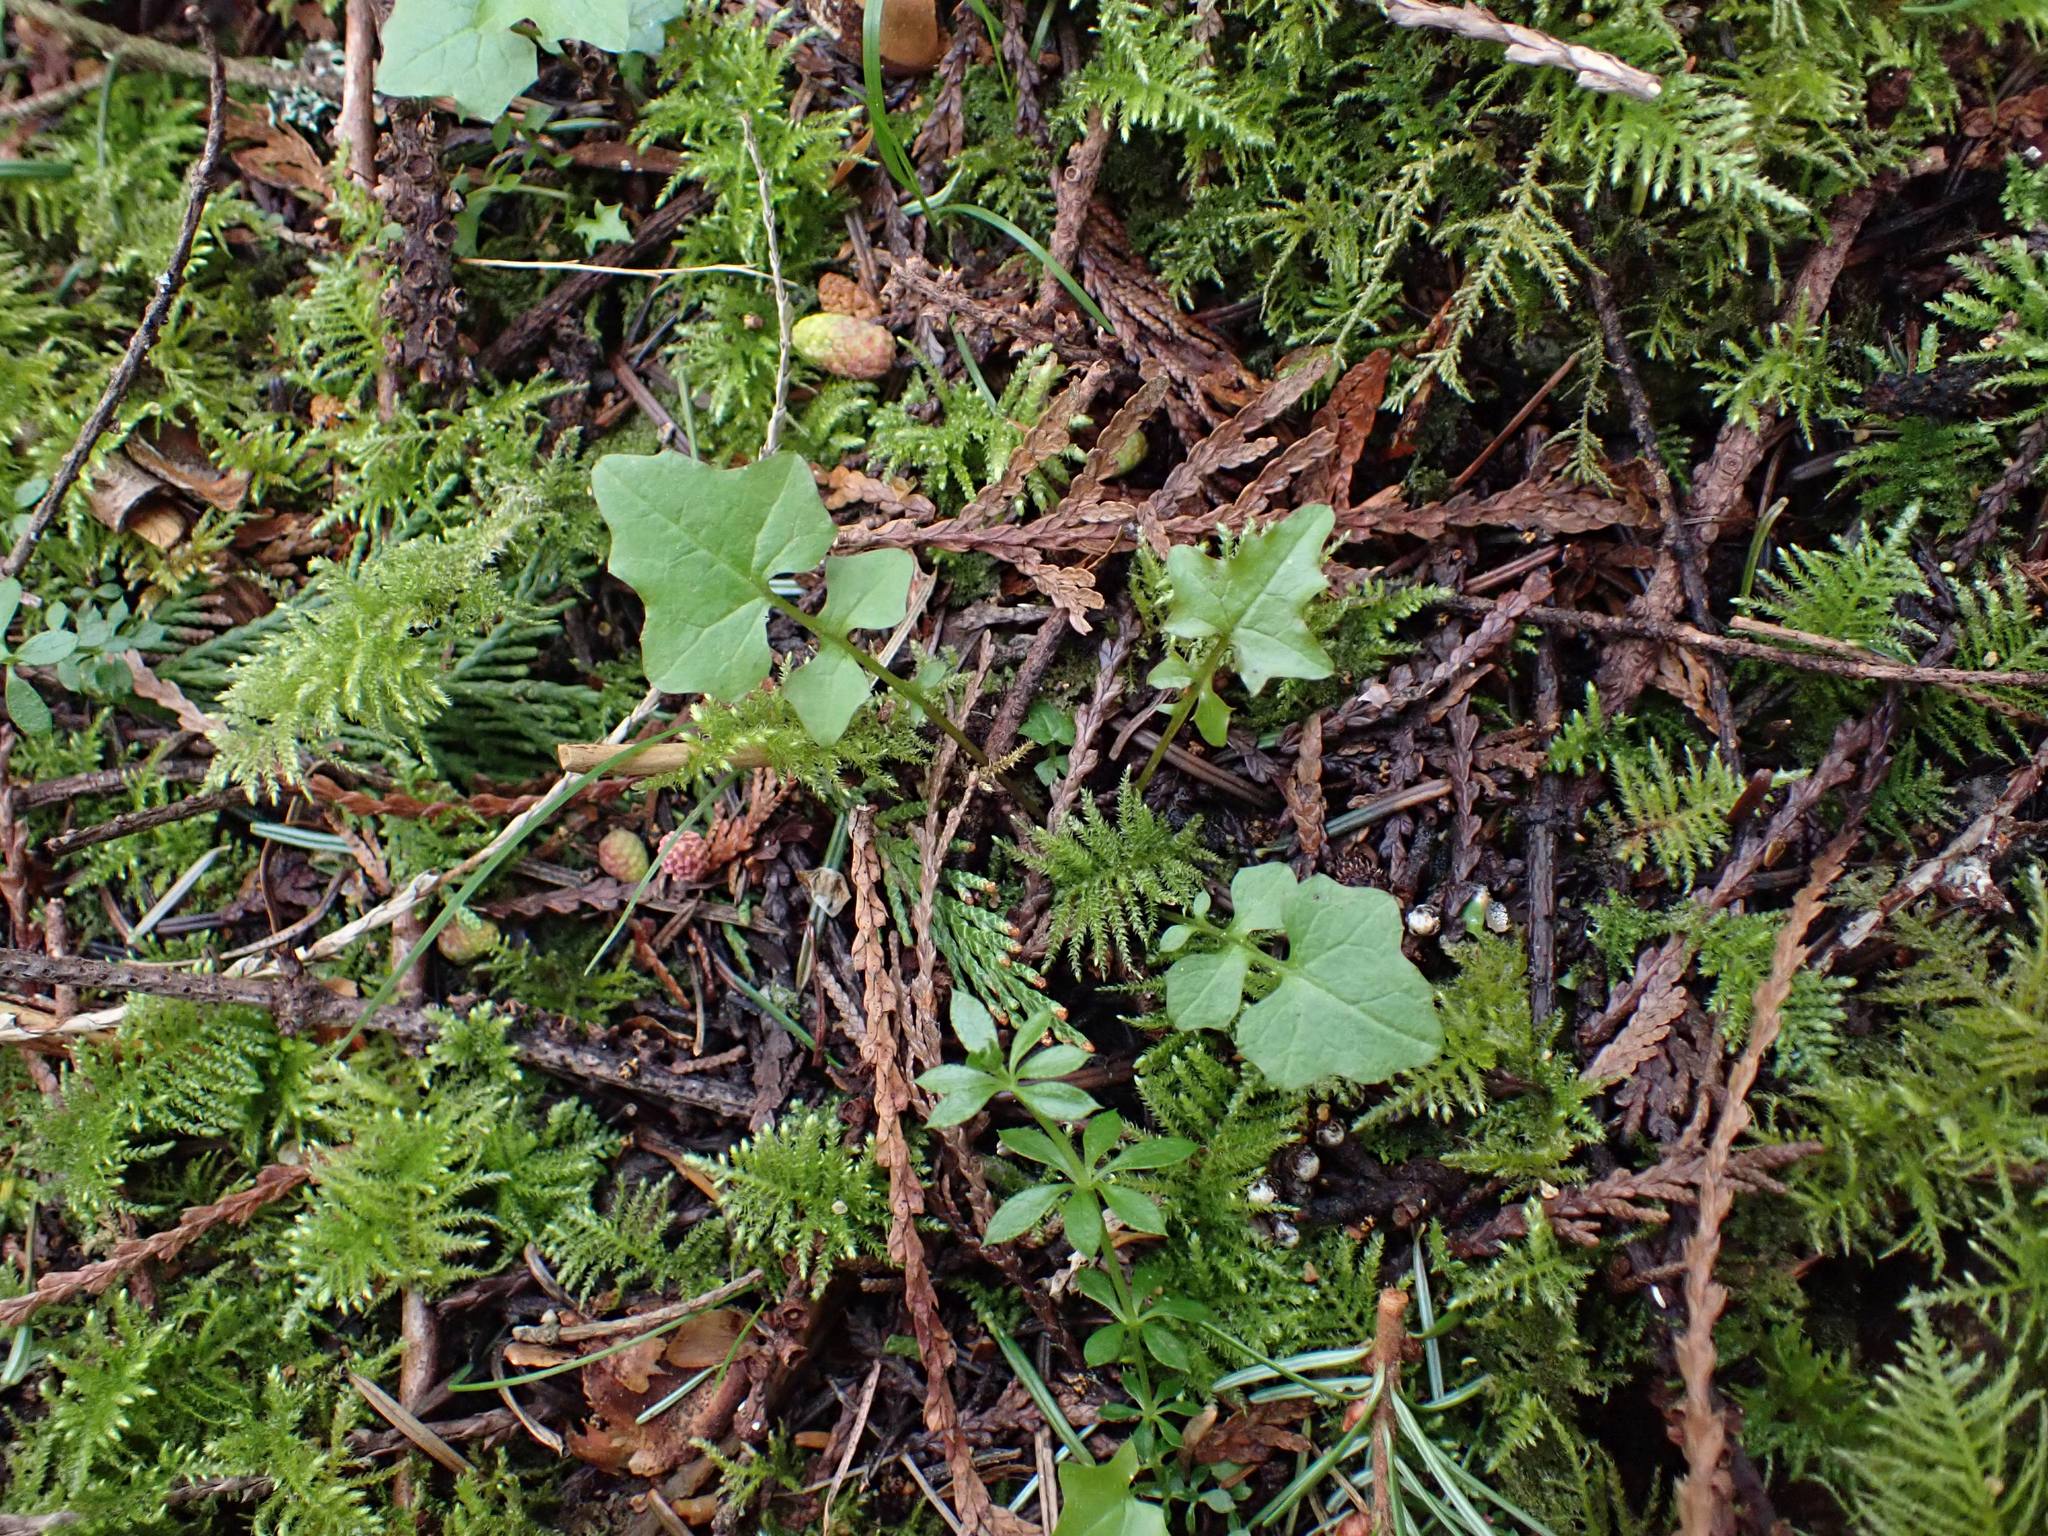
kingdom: Plantae
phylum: Tracheophyta
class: Magnoliopsida
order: Asterales
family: Asteraceae
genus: Mycelis
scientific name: Mycelis muralis
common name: Wall lettuce
